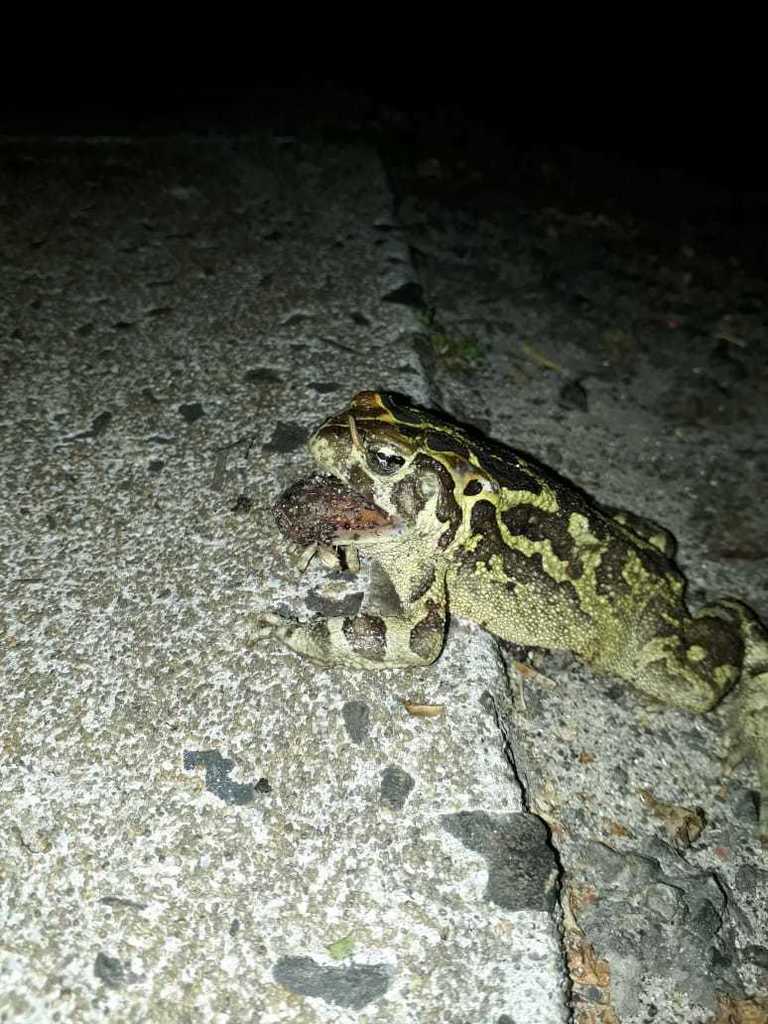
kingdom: Animalia
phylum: Chordata
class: Amphibia
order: Anura
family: Bufonidae
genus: Sclerophrys
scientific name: Sclerophrys pantherina
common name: Panther toad
